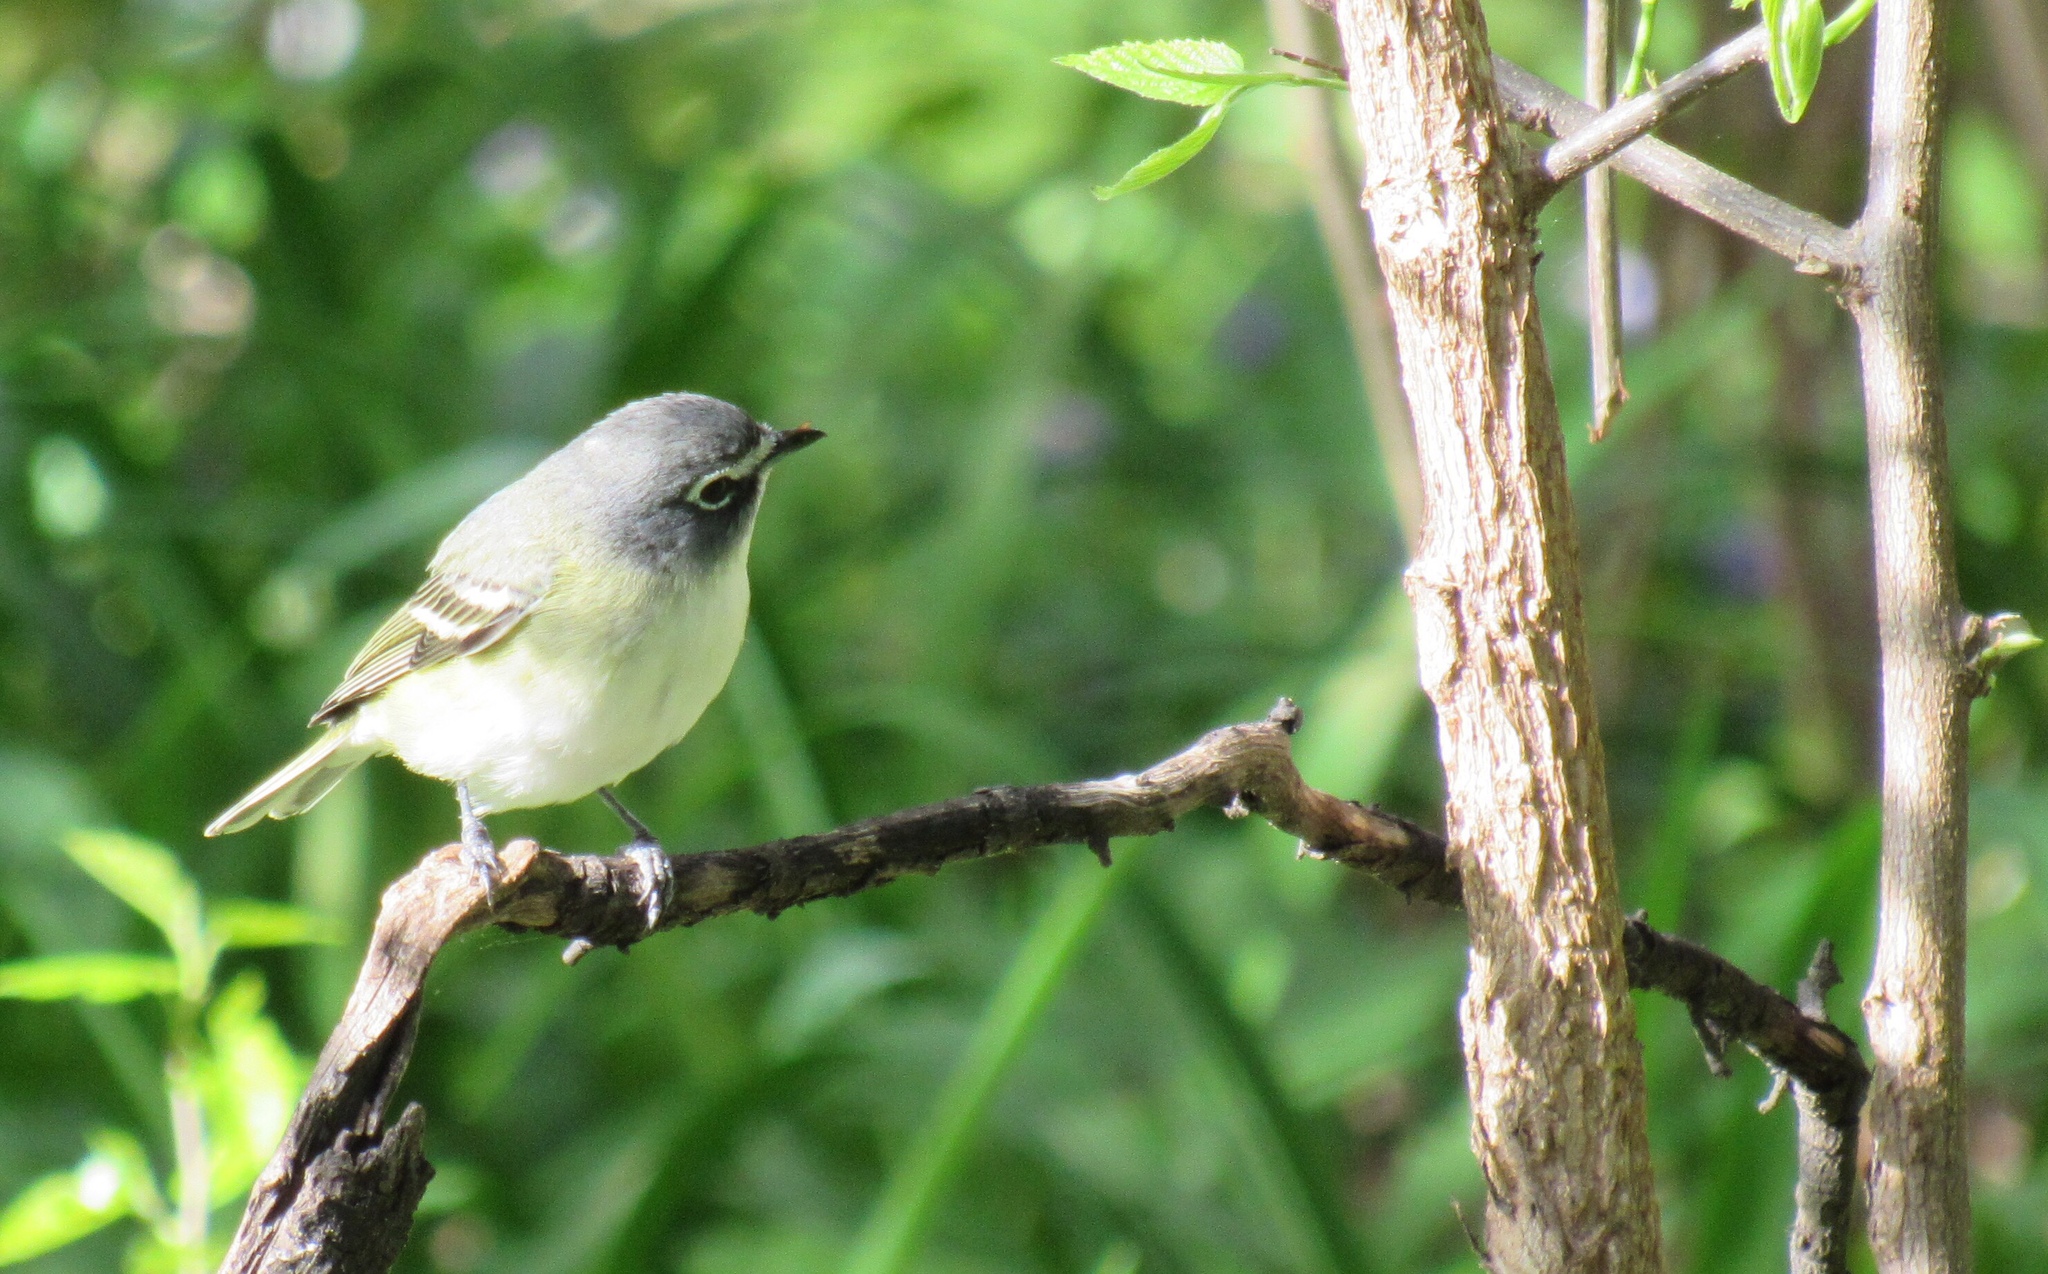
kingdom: Animalia
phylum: Chordata
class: Aves
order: Passeriformes
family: Vireonidae
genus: Vireo
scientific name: Vireo solitarius
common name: Blue-headed vireo
